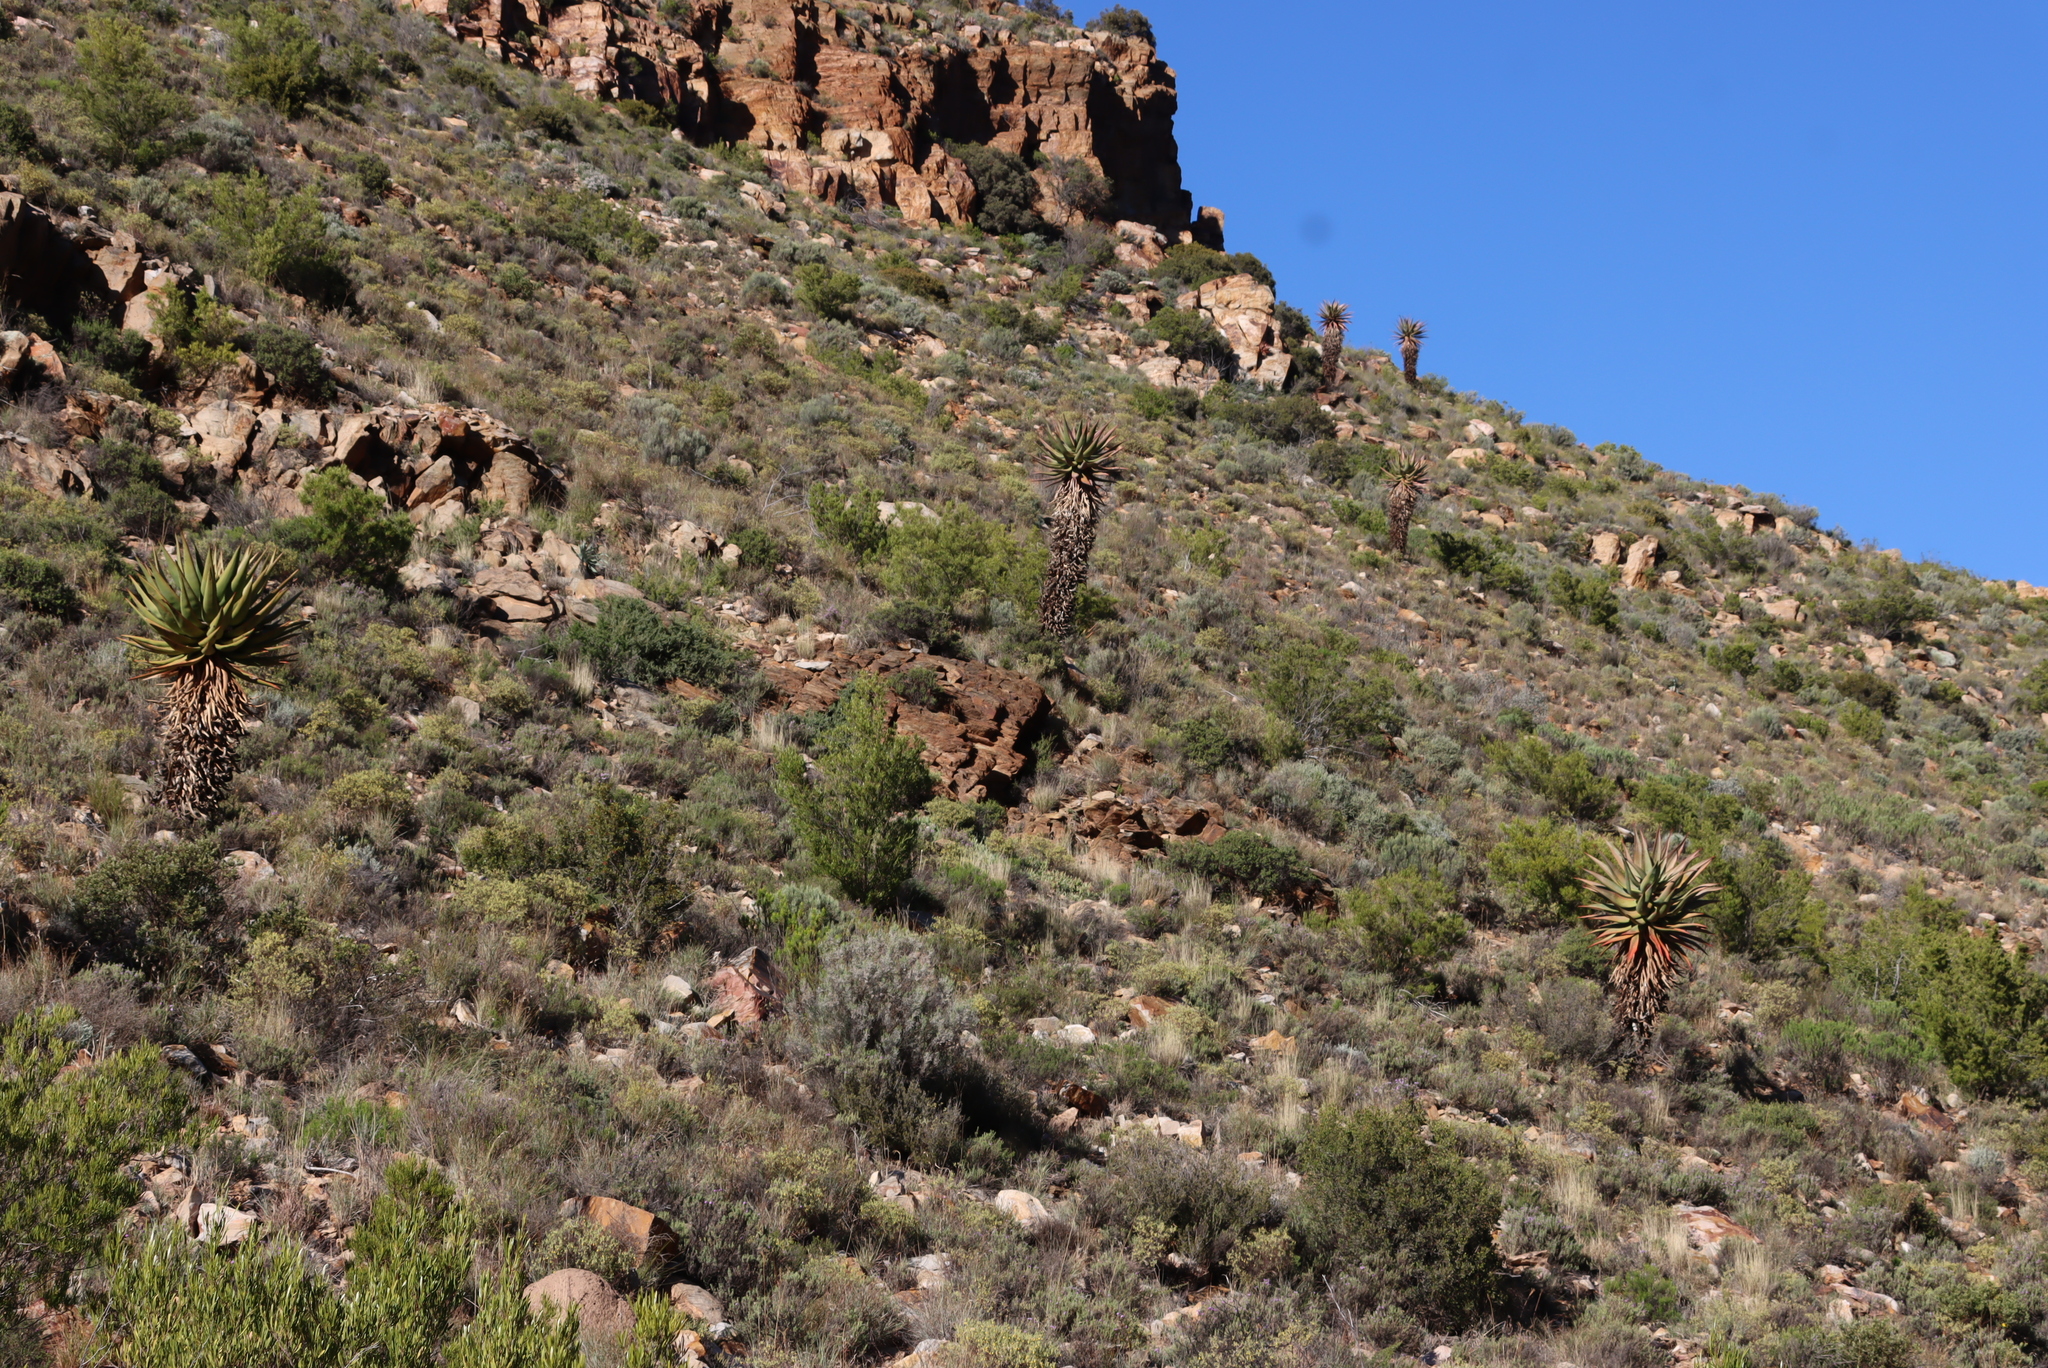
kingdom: Plantae
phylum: Tracheophyta
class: Liliopsida
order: Asparagales
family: Asphodelaceae
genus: Aloe
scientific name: Aloe ferox
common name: Bitter aloe
